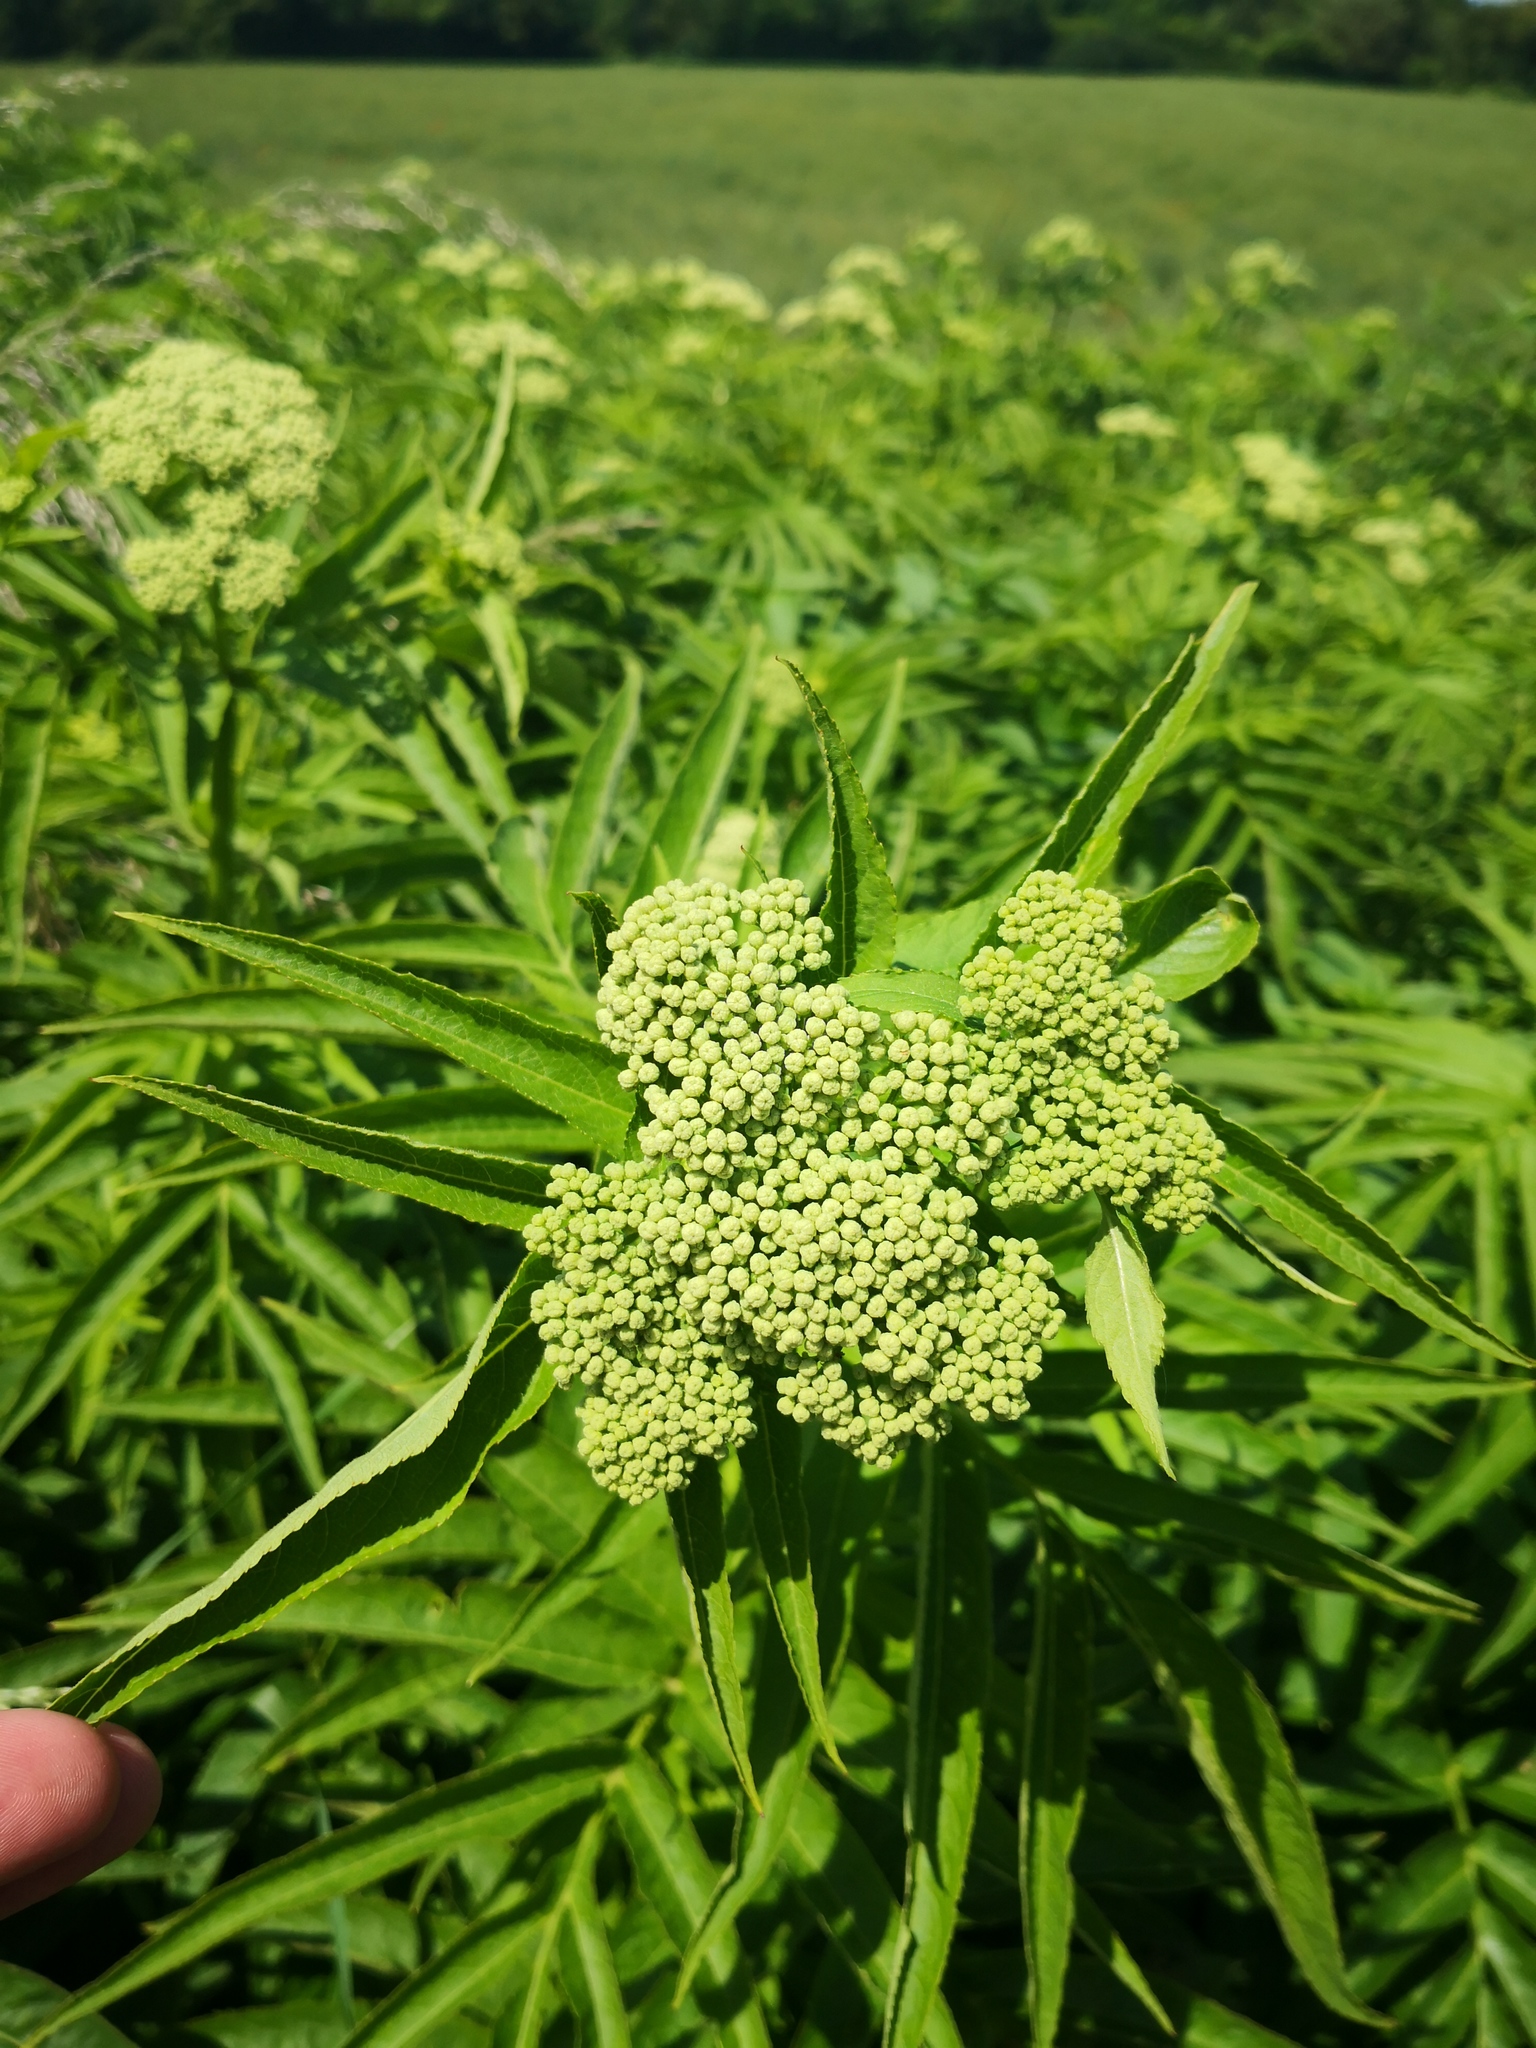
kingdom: Plantae
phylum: Tracheophyta
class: Magnoliopsida
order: Dipsacales
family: Viburnaceae
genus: Sambucus
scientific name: Sambucus ebulus
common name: Dwarf elder
